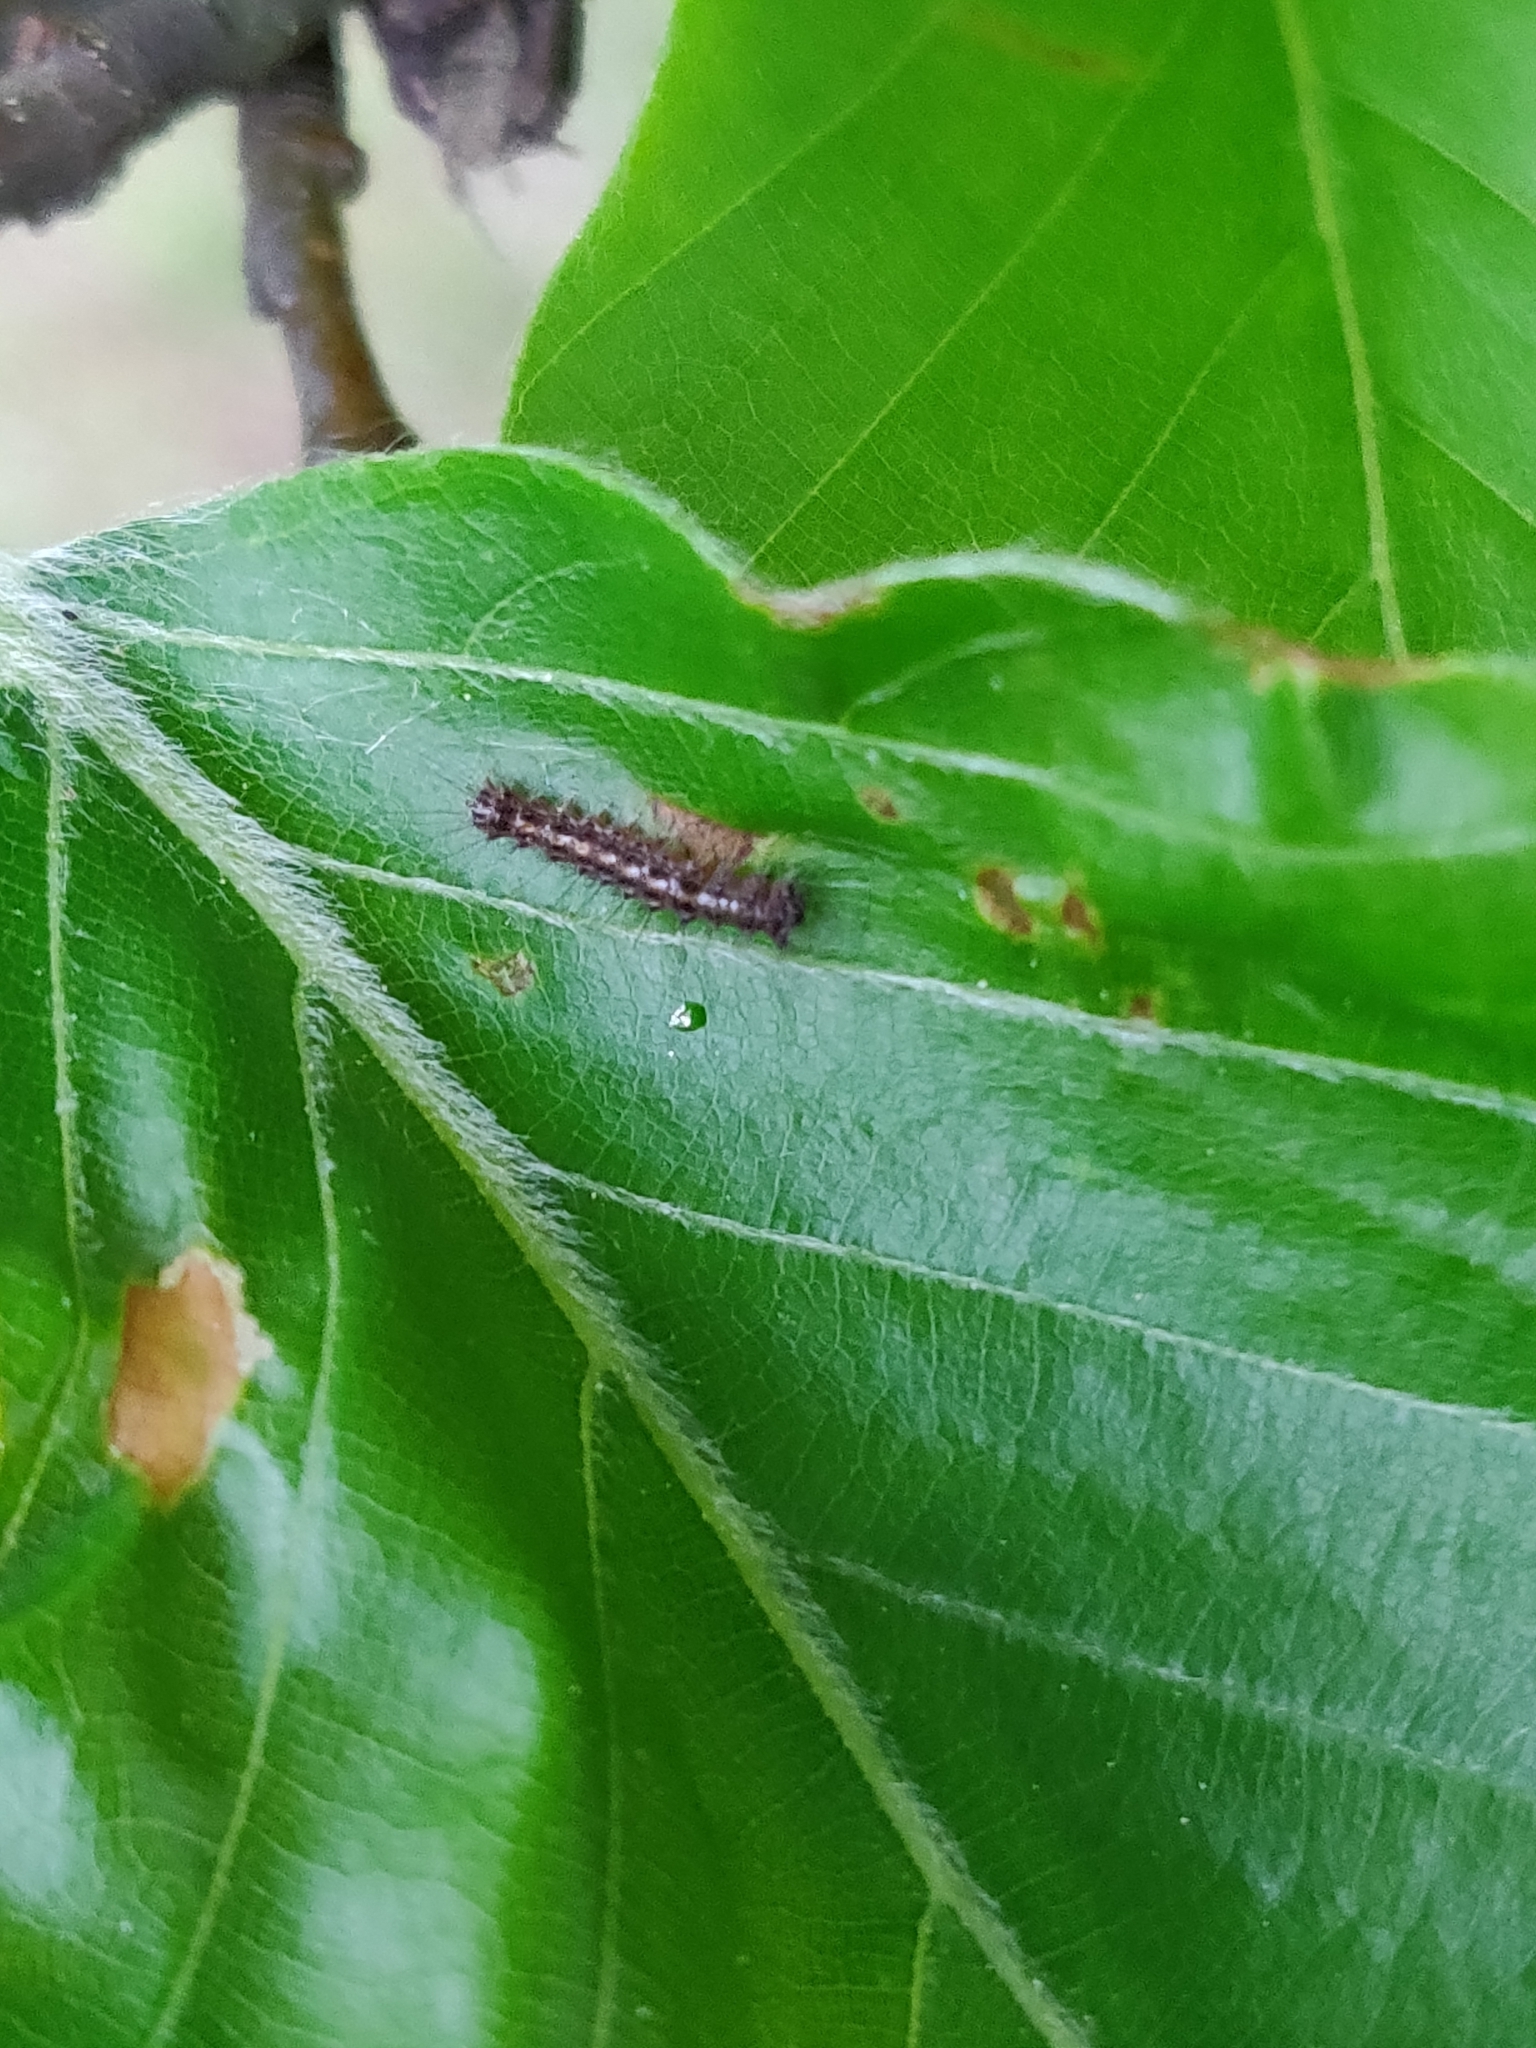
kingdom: Animalia
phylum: Arthropoda
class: Insecta
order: Lepidoptera
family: Erebidae
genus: Lymantria
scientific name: Lymantria dispar
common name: Gypsy moth
